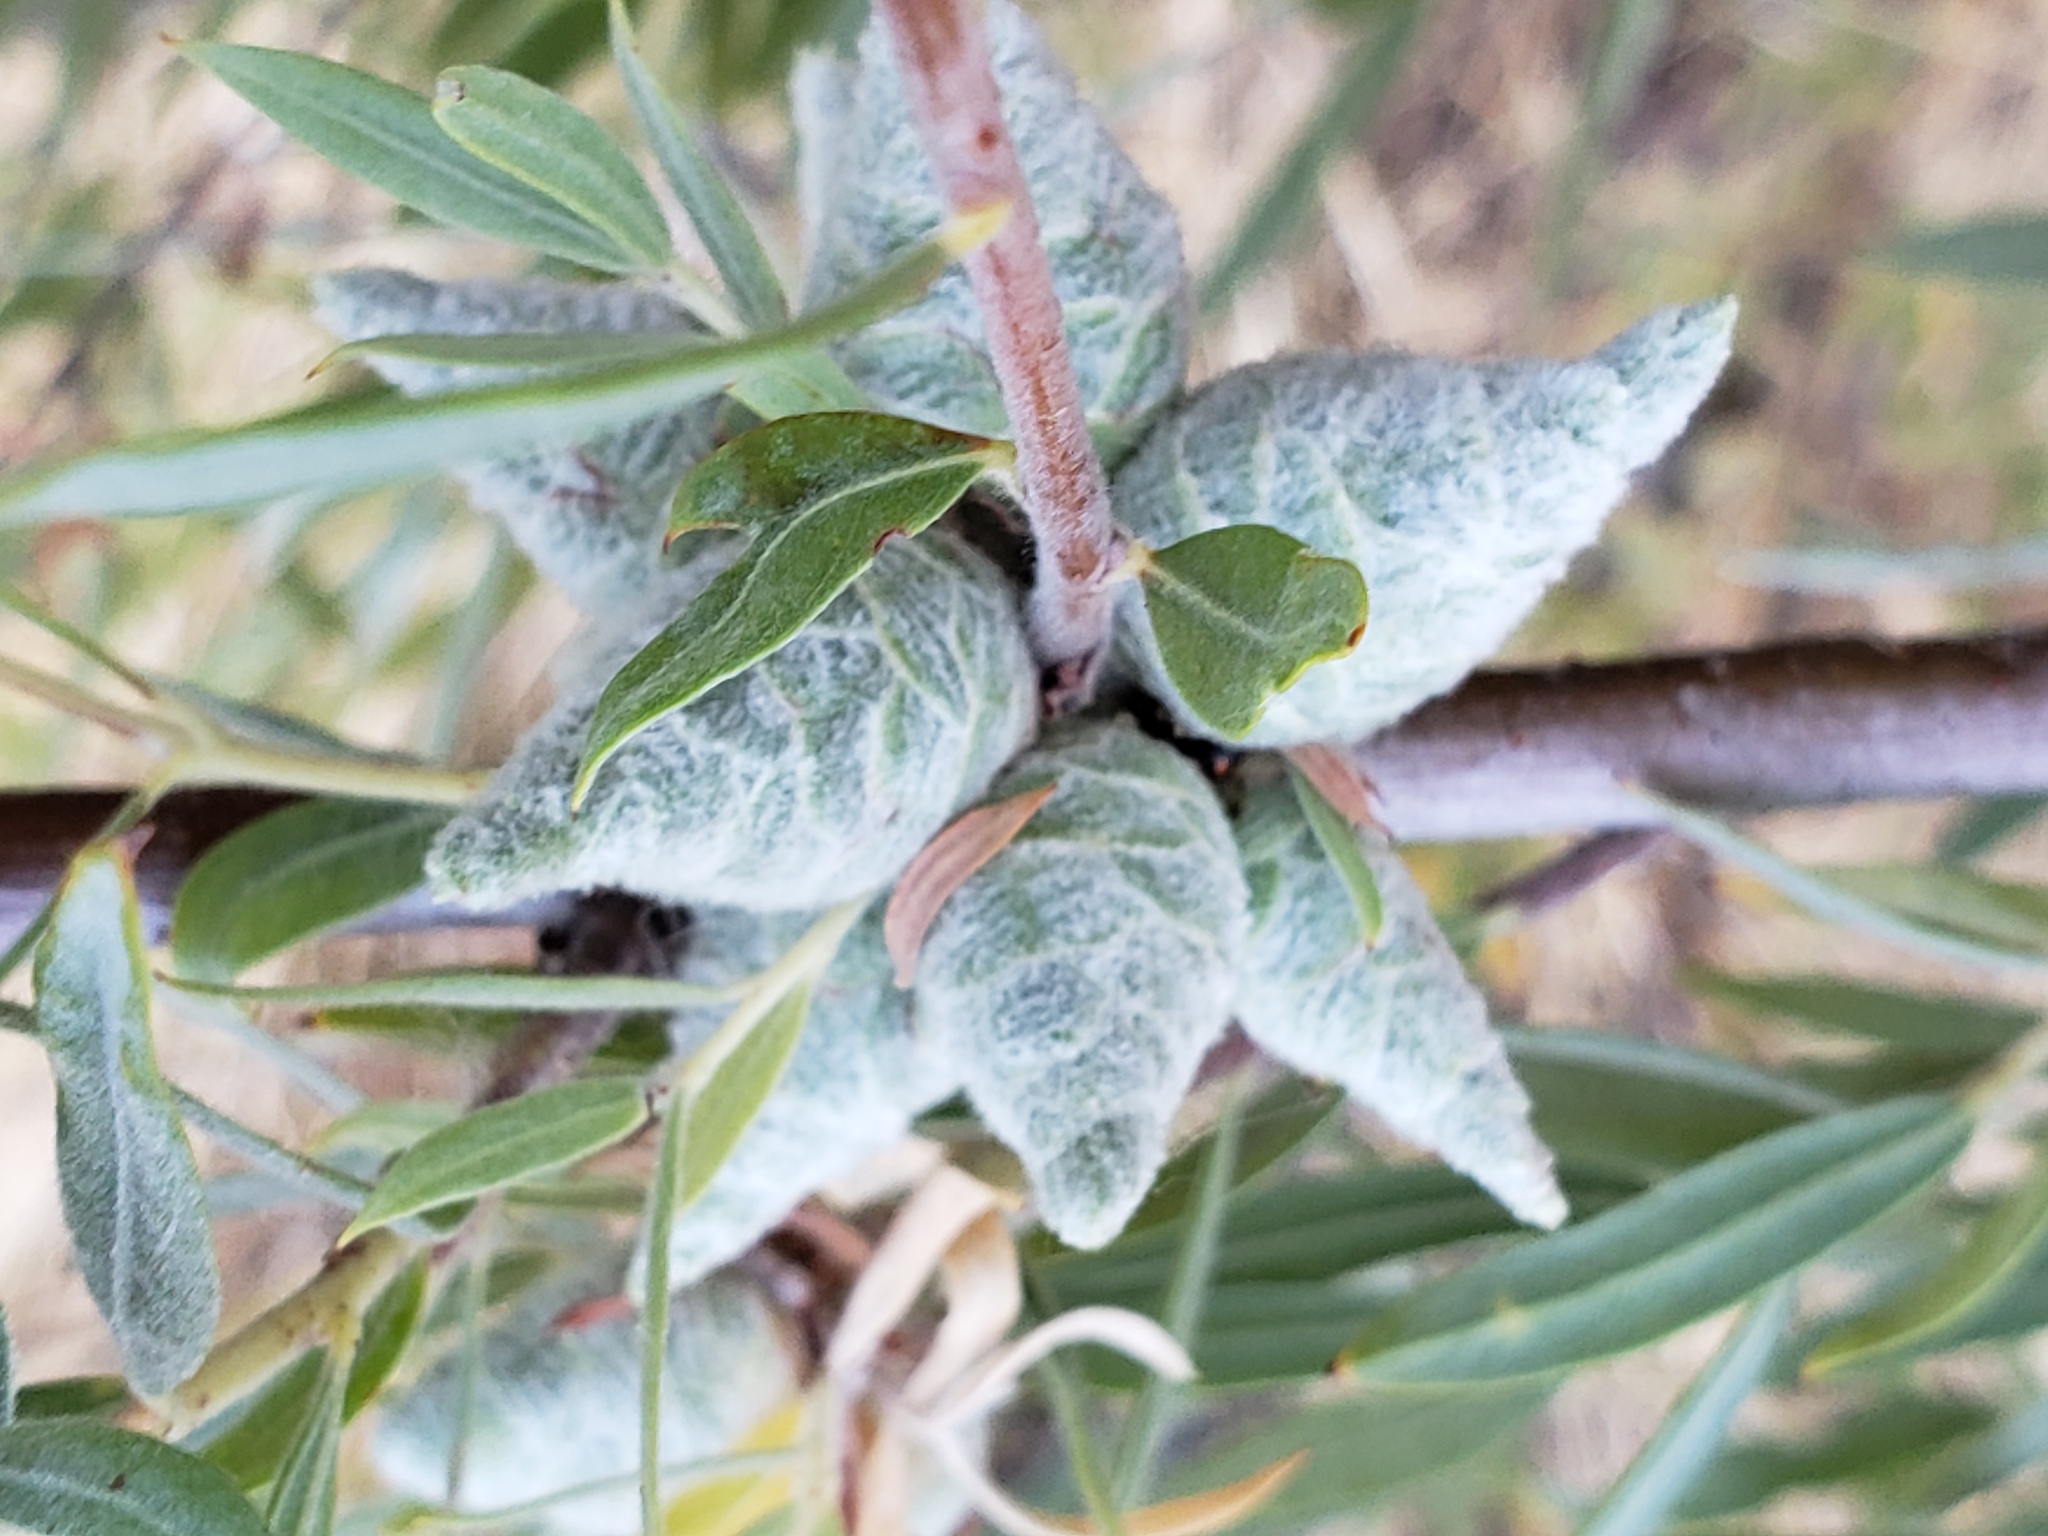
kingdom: Animalia
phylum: Arthropoda
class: Insecta
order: Diptera
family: Cecidomyiidae
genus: Rabdophaga
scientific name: Rabdophaga strobiloides
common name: Willow pinecone gall midge
